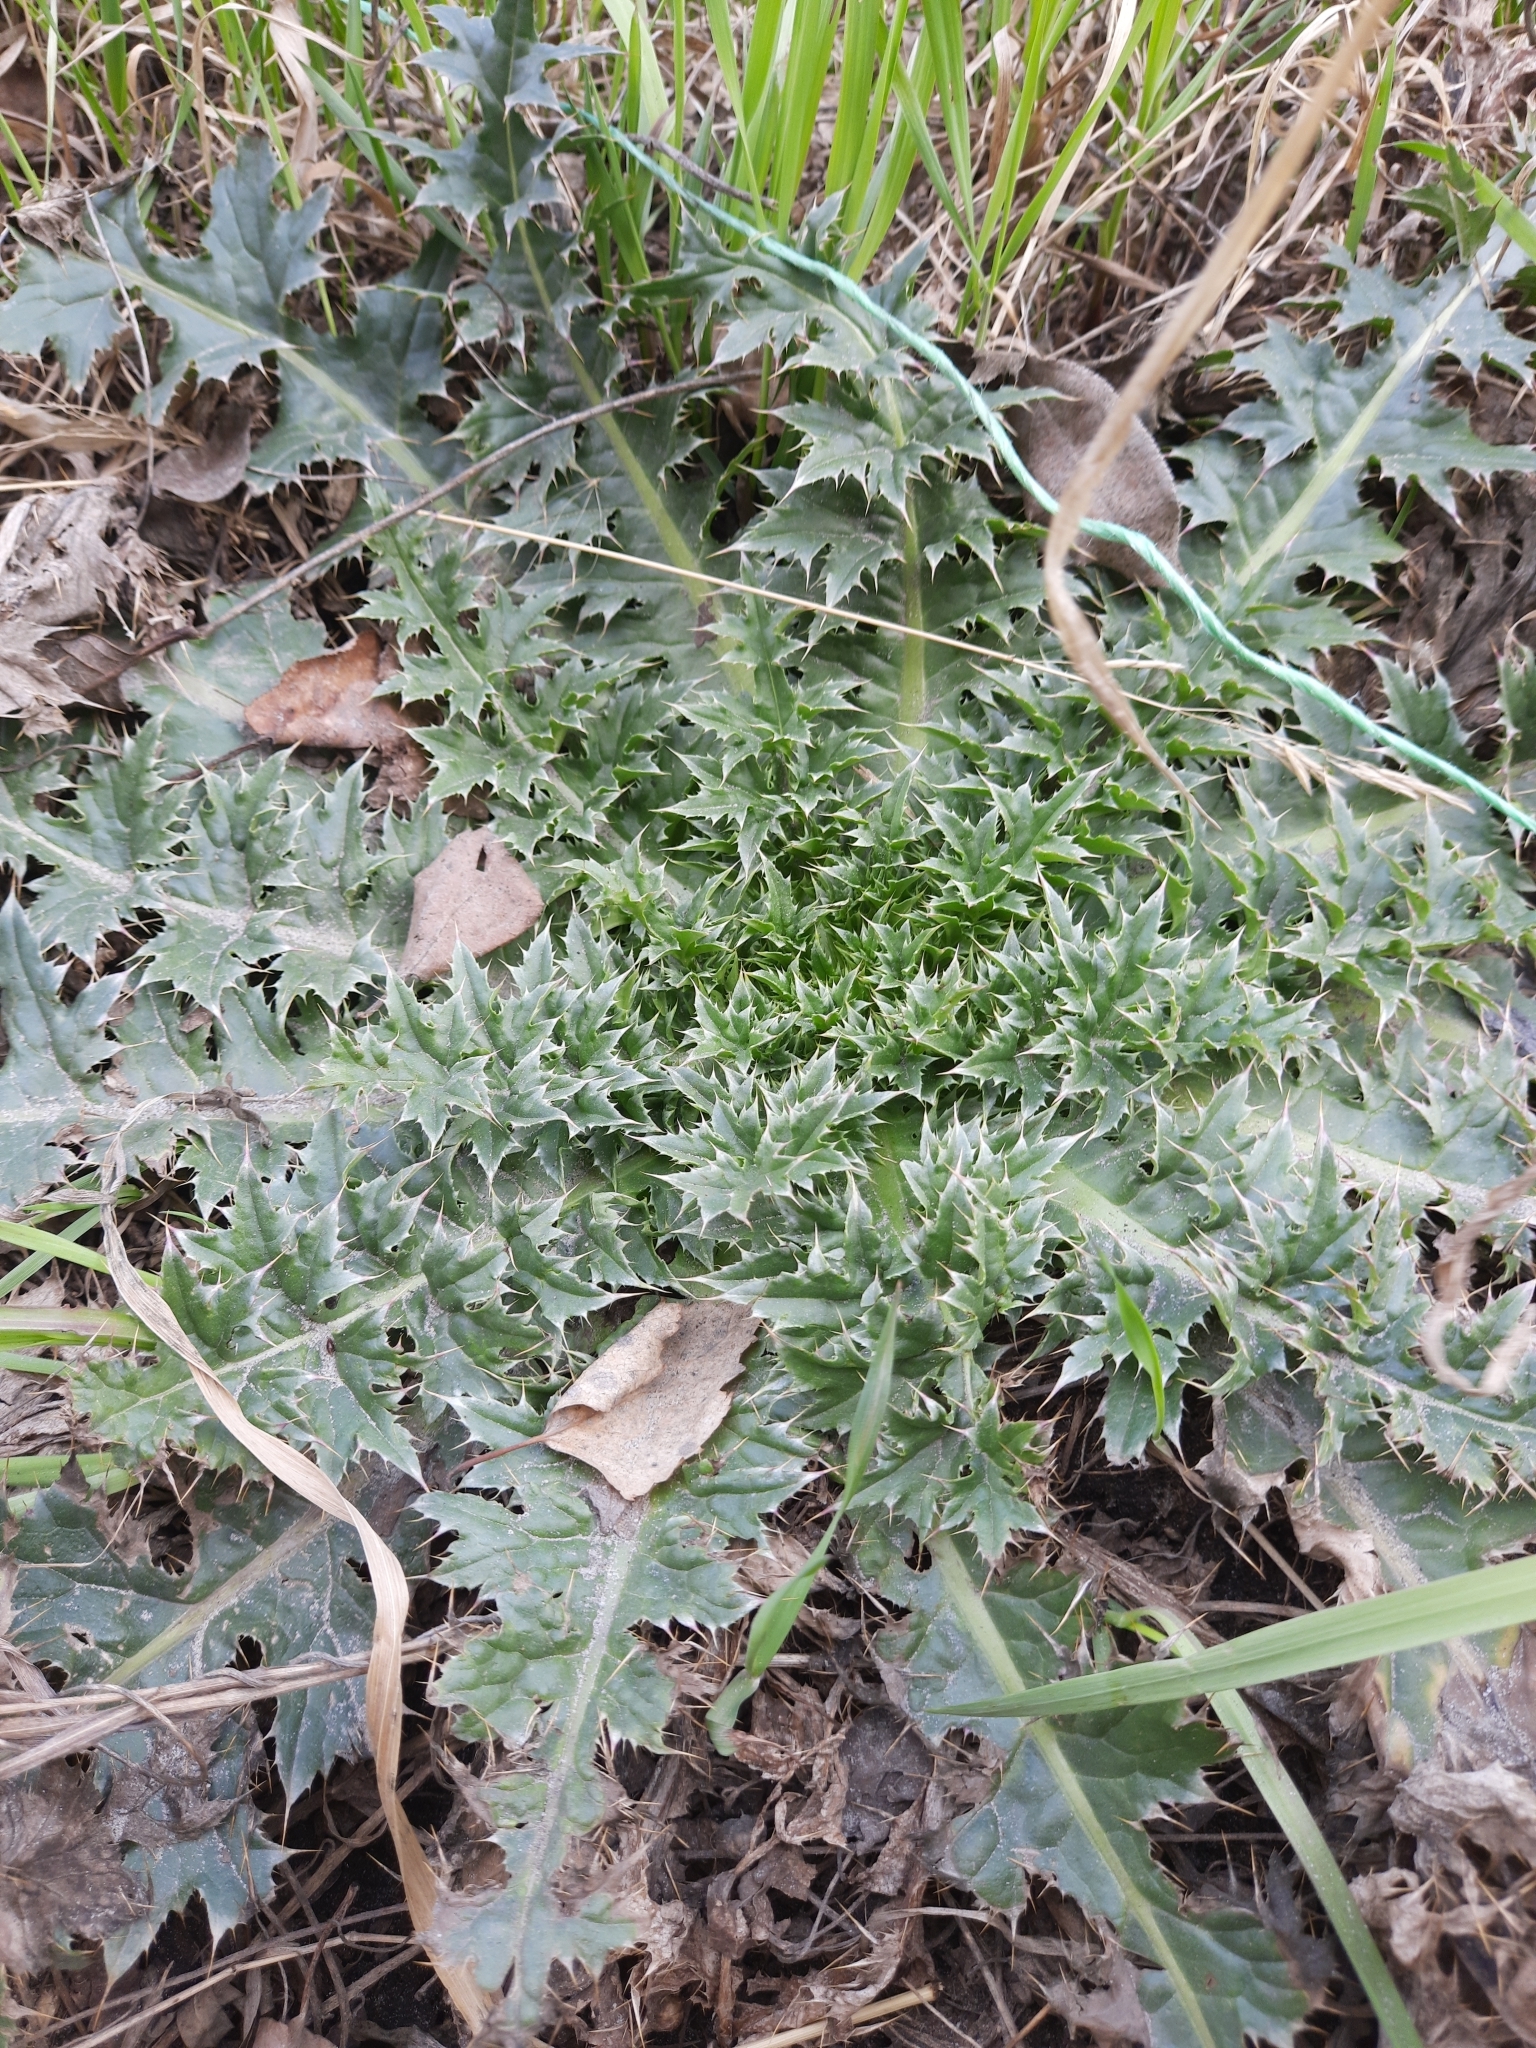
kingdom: Plantae
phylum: Tracheophyta
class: Magnoliopsida
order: Asterales
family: Asteraceae
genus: Carduus
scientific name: Carduus nutans
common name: Musk thistle
